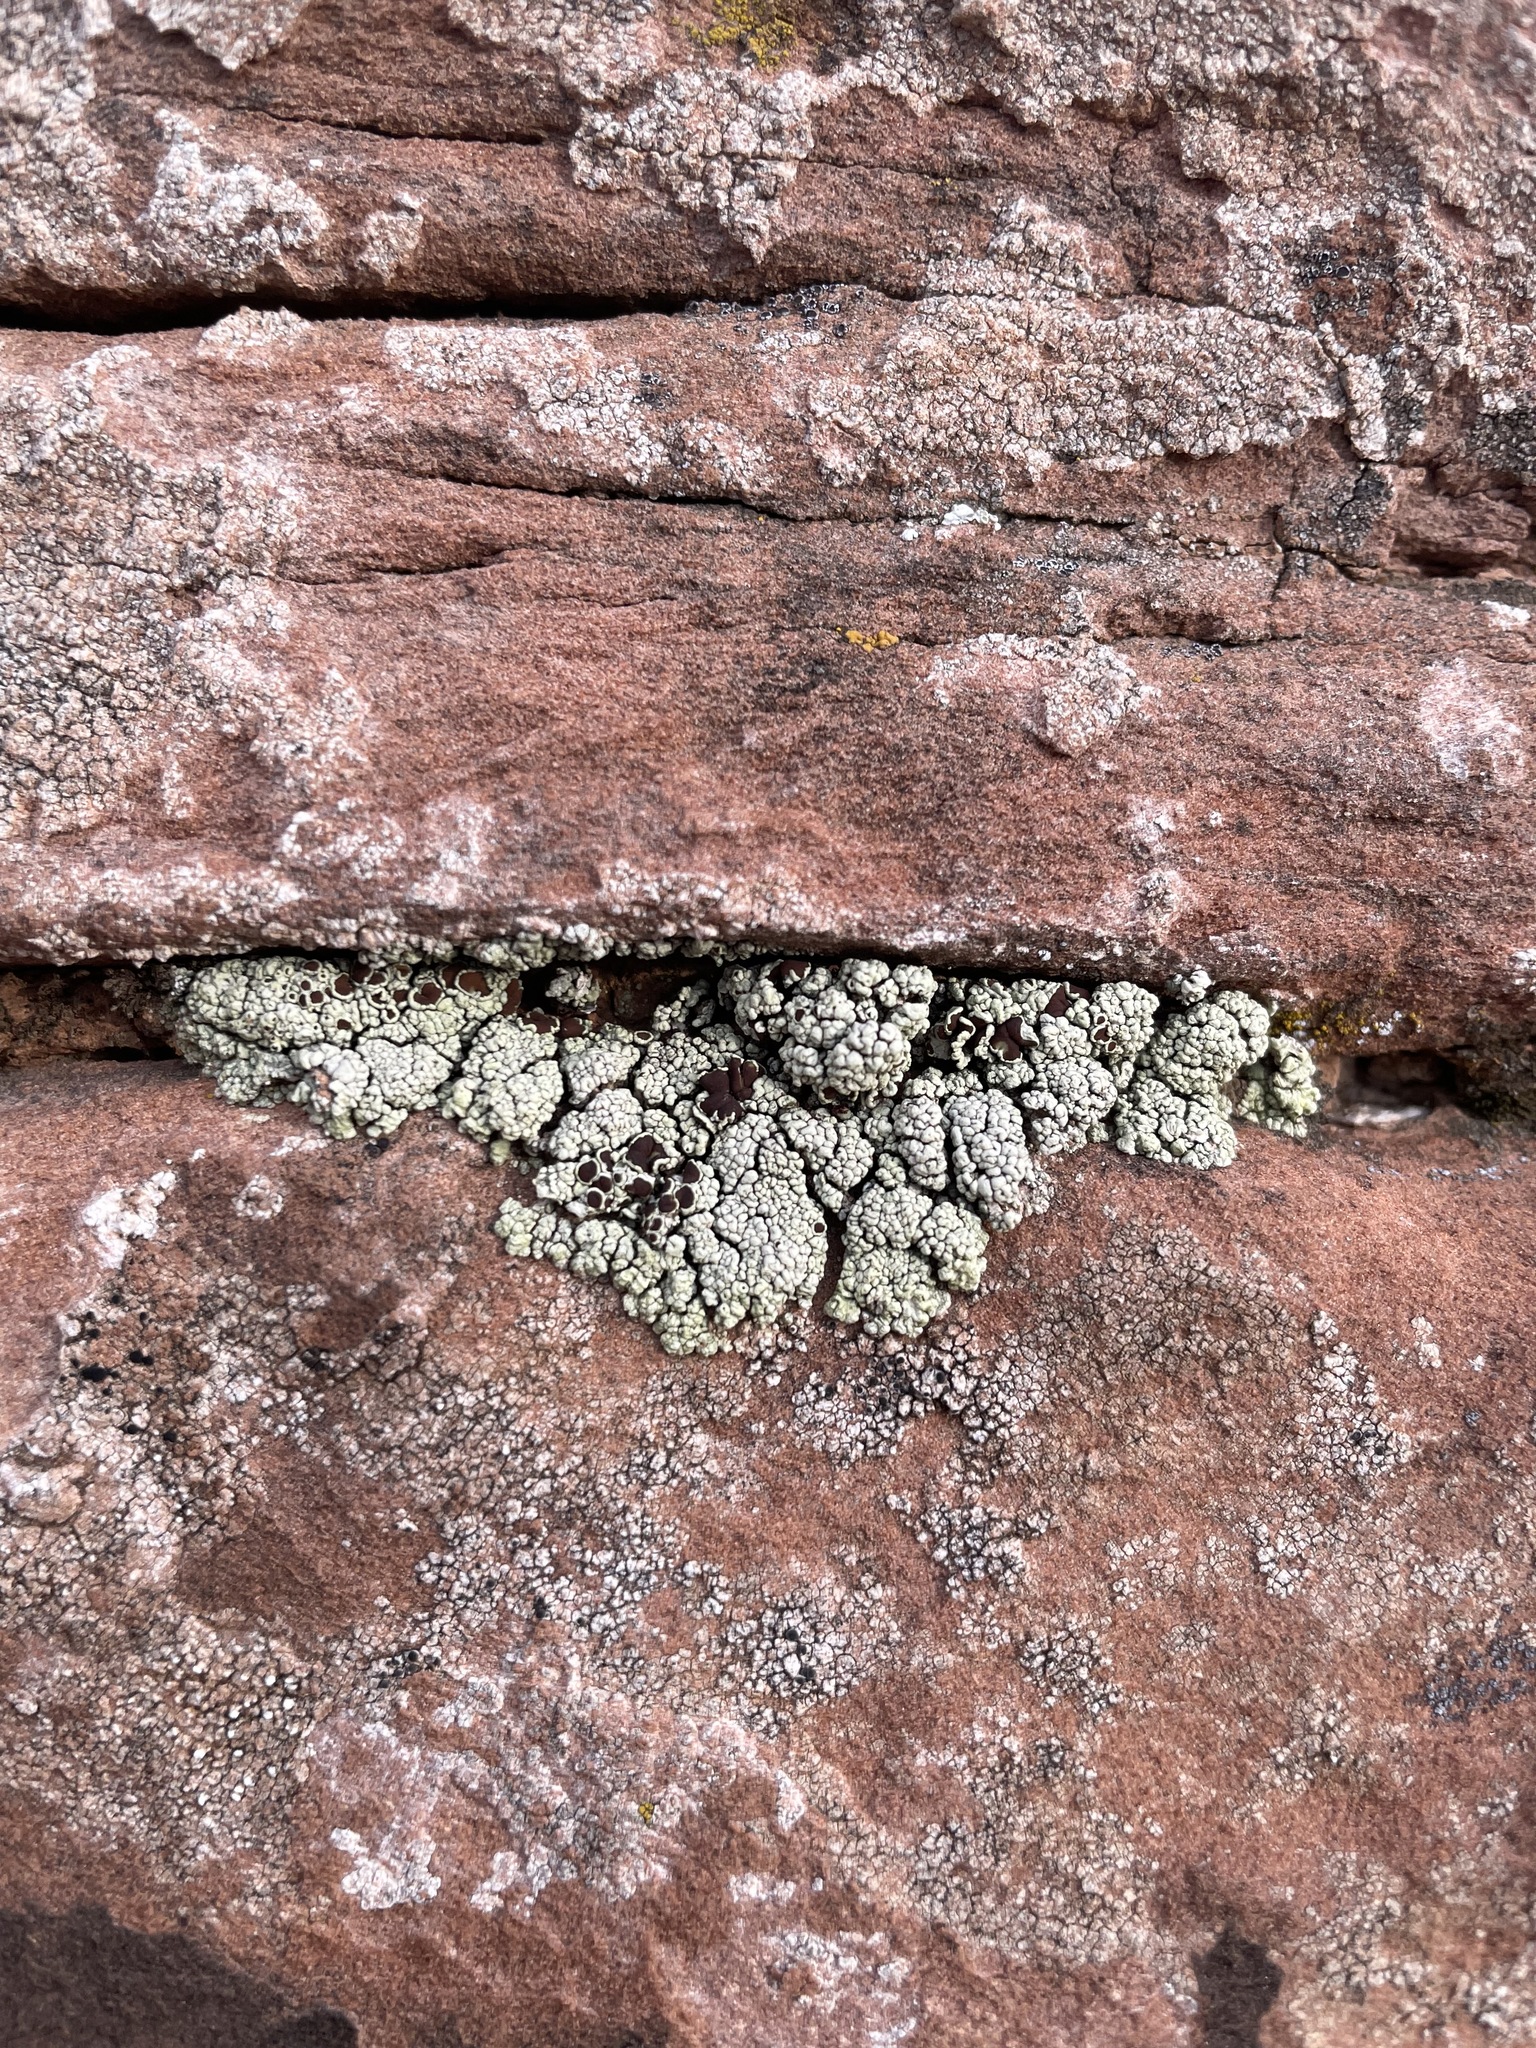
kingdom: Fungi
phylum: Ascomycota
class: Lecanoromycetes
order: Lecanorales
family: Lecanoraceae
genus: Lecanora
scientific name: Lecanora argopholis
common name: Varying rim lichen
